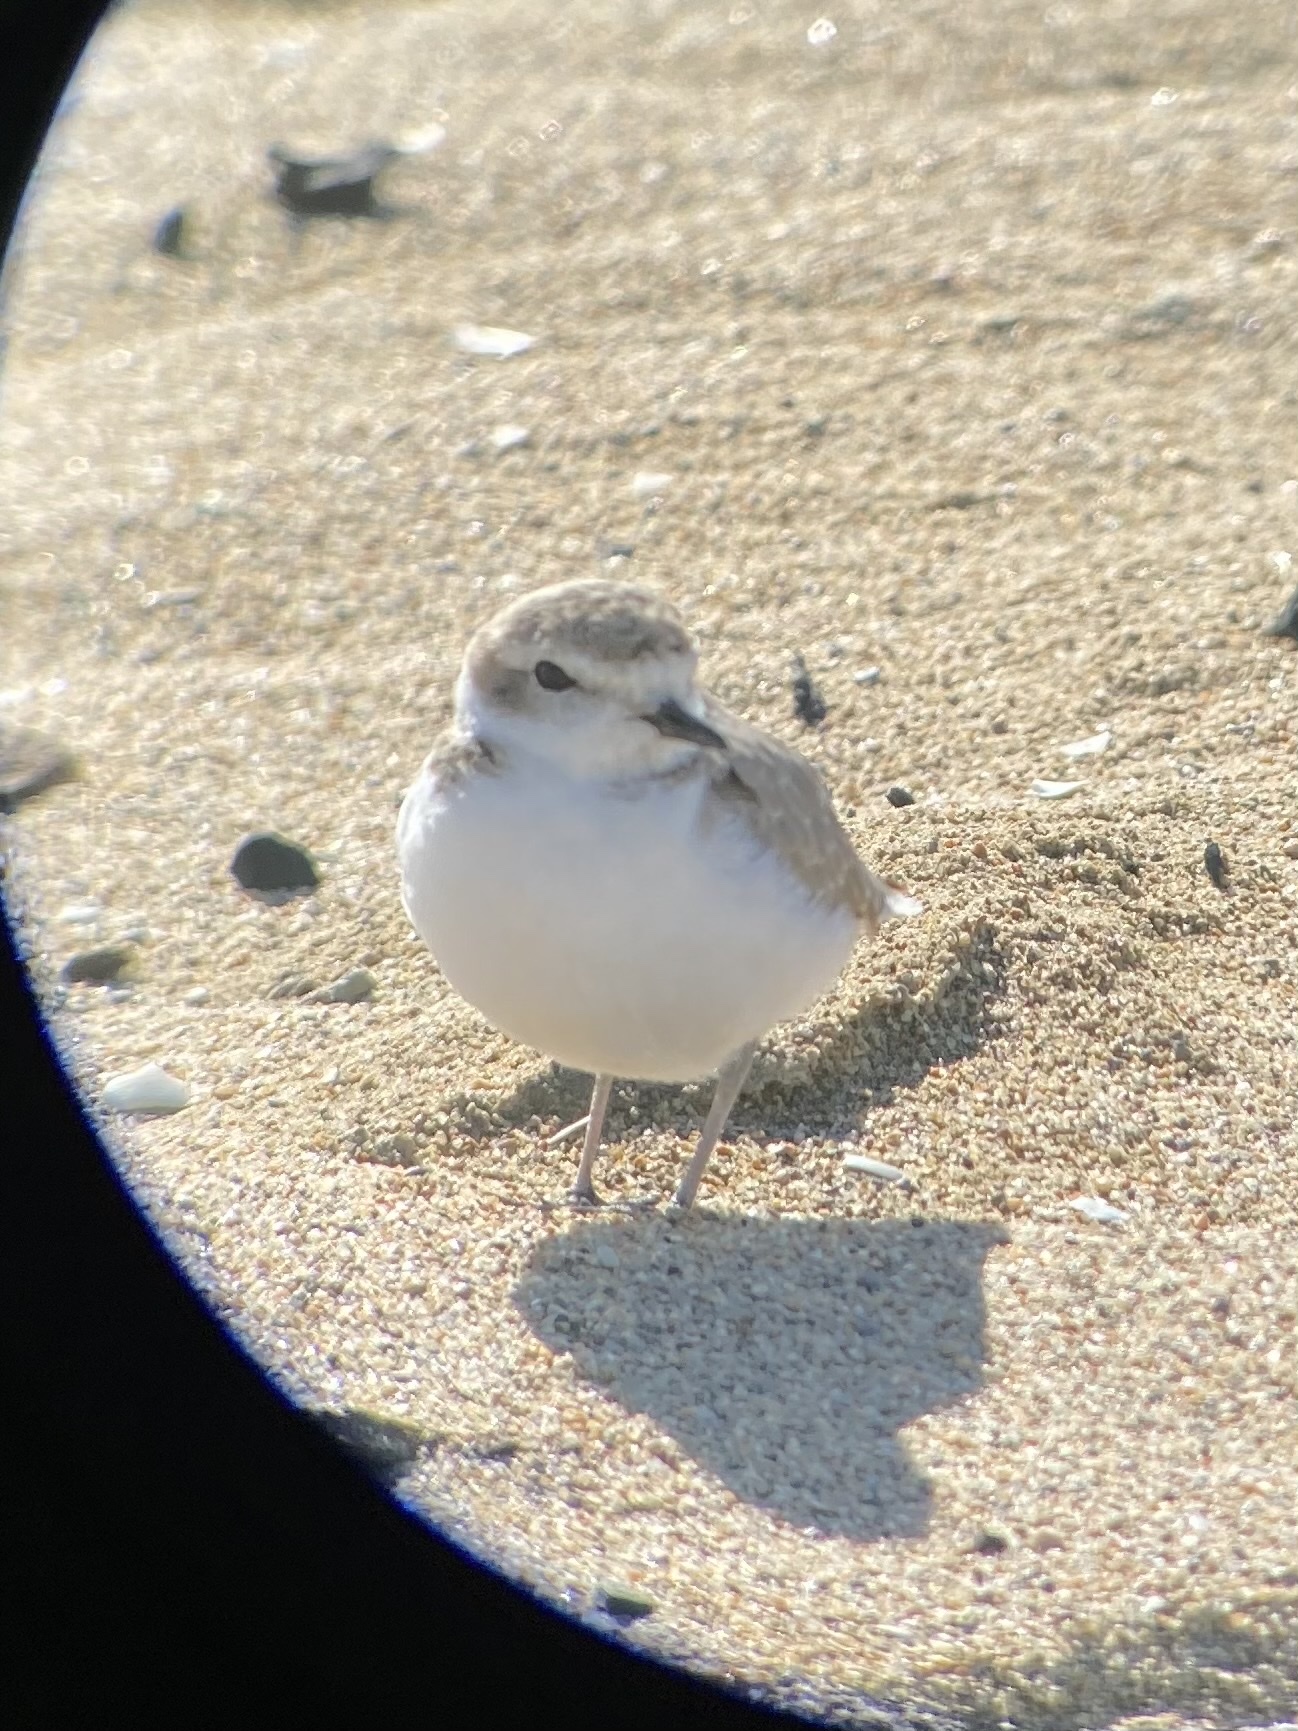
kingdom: Animalia
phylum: Chordata
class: Aves
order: Charadriiformes
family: Charadriidae
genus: Anarhynchus
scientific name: Anarhynchus
